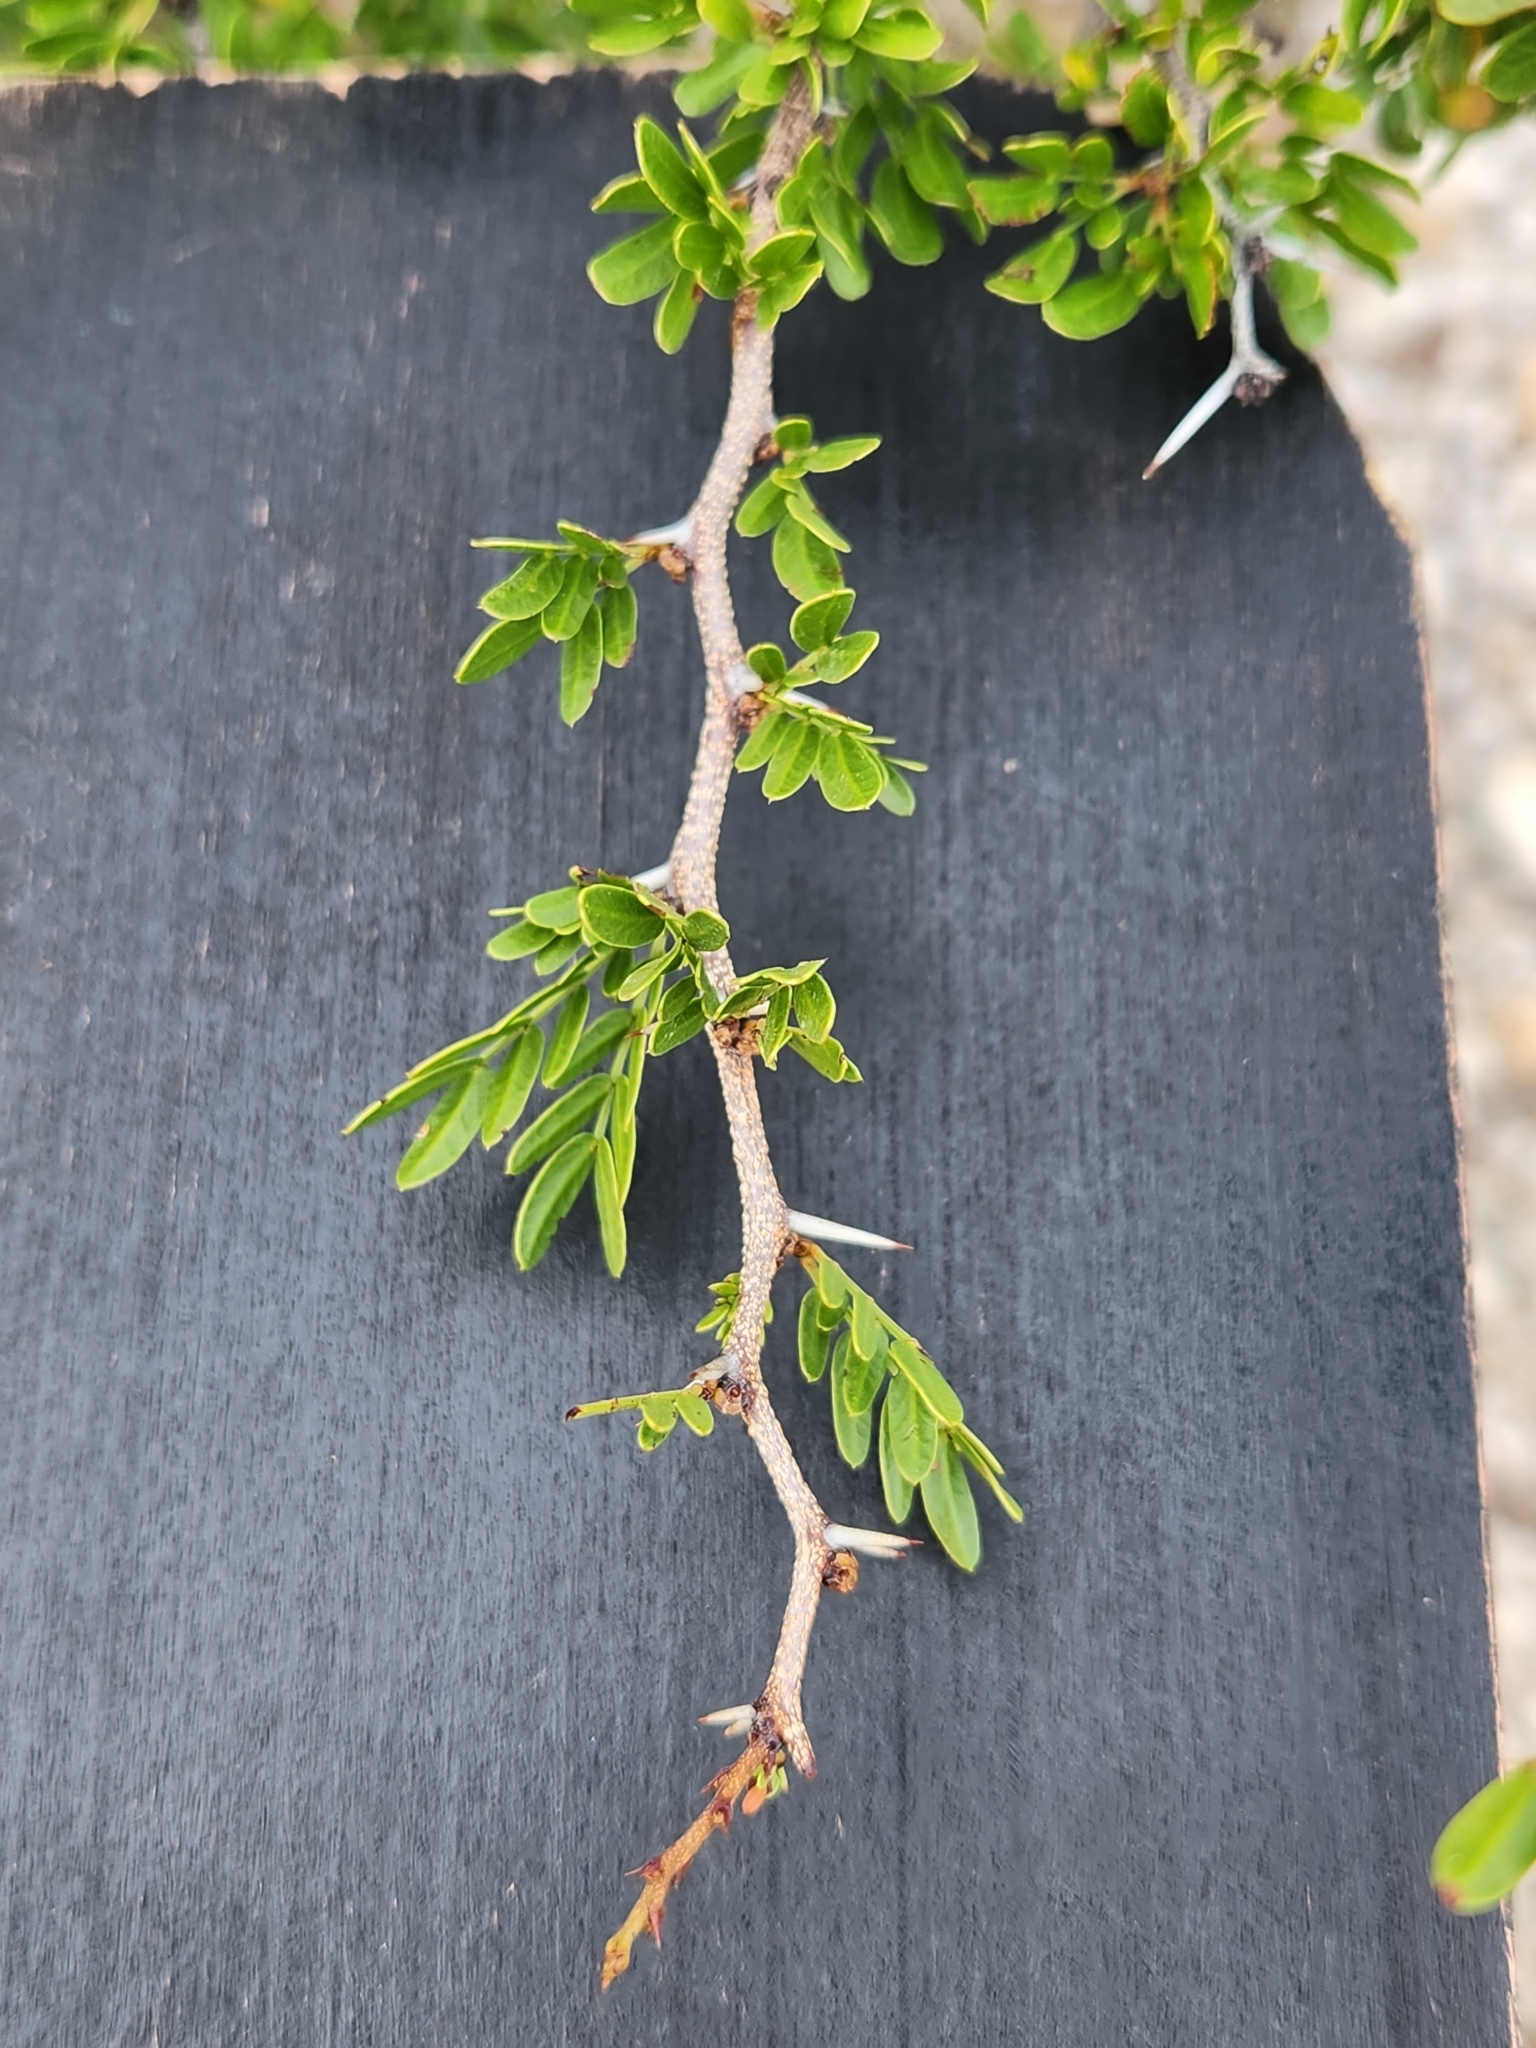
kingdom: Plantae
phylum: Tracheophyta
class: Magnoliopsida
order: Fabales
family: Fabaceae
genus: Vachellia
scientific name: Vachellia rigidula
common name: Blackbrush
